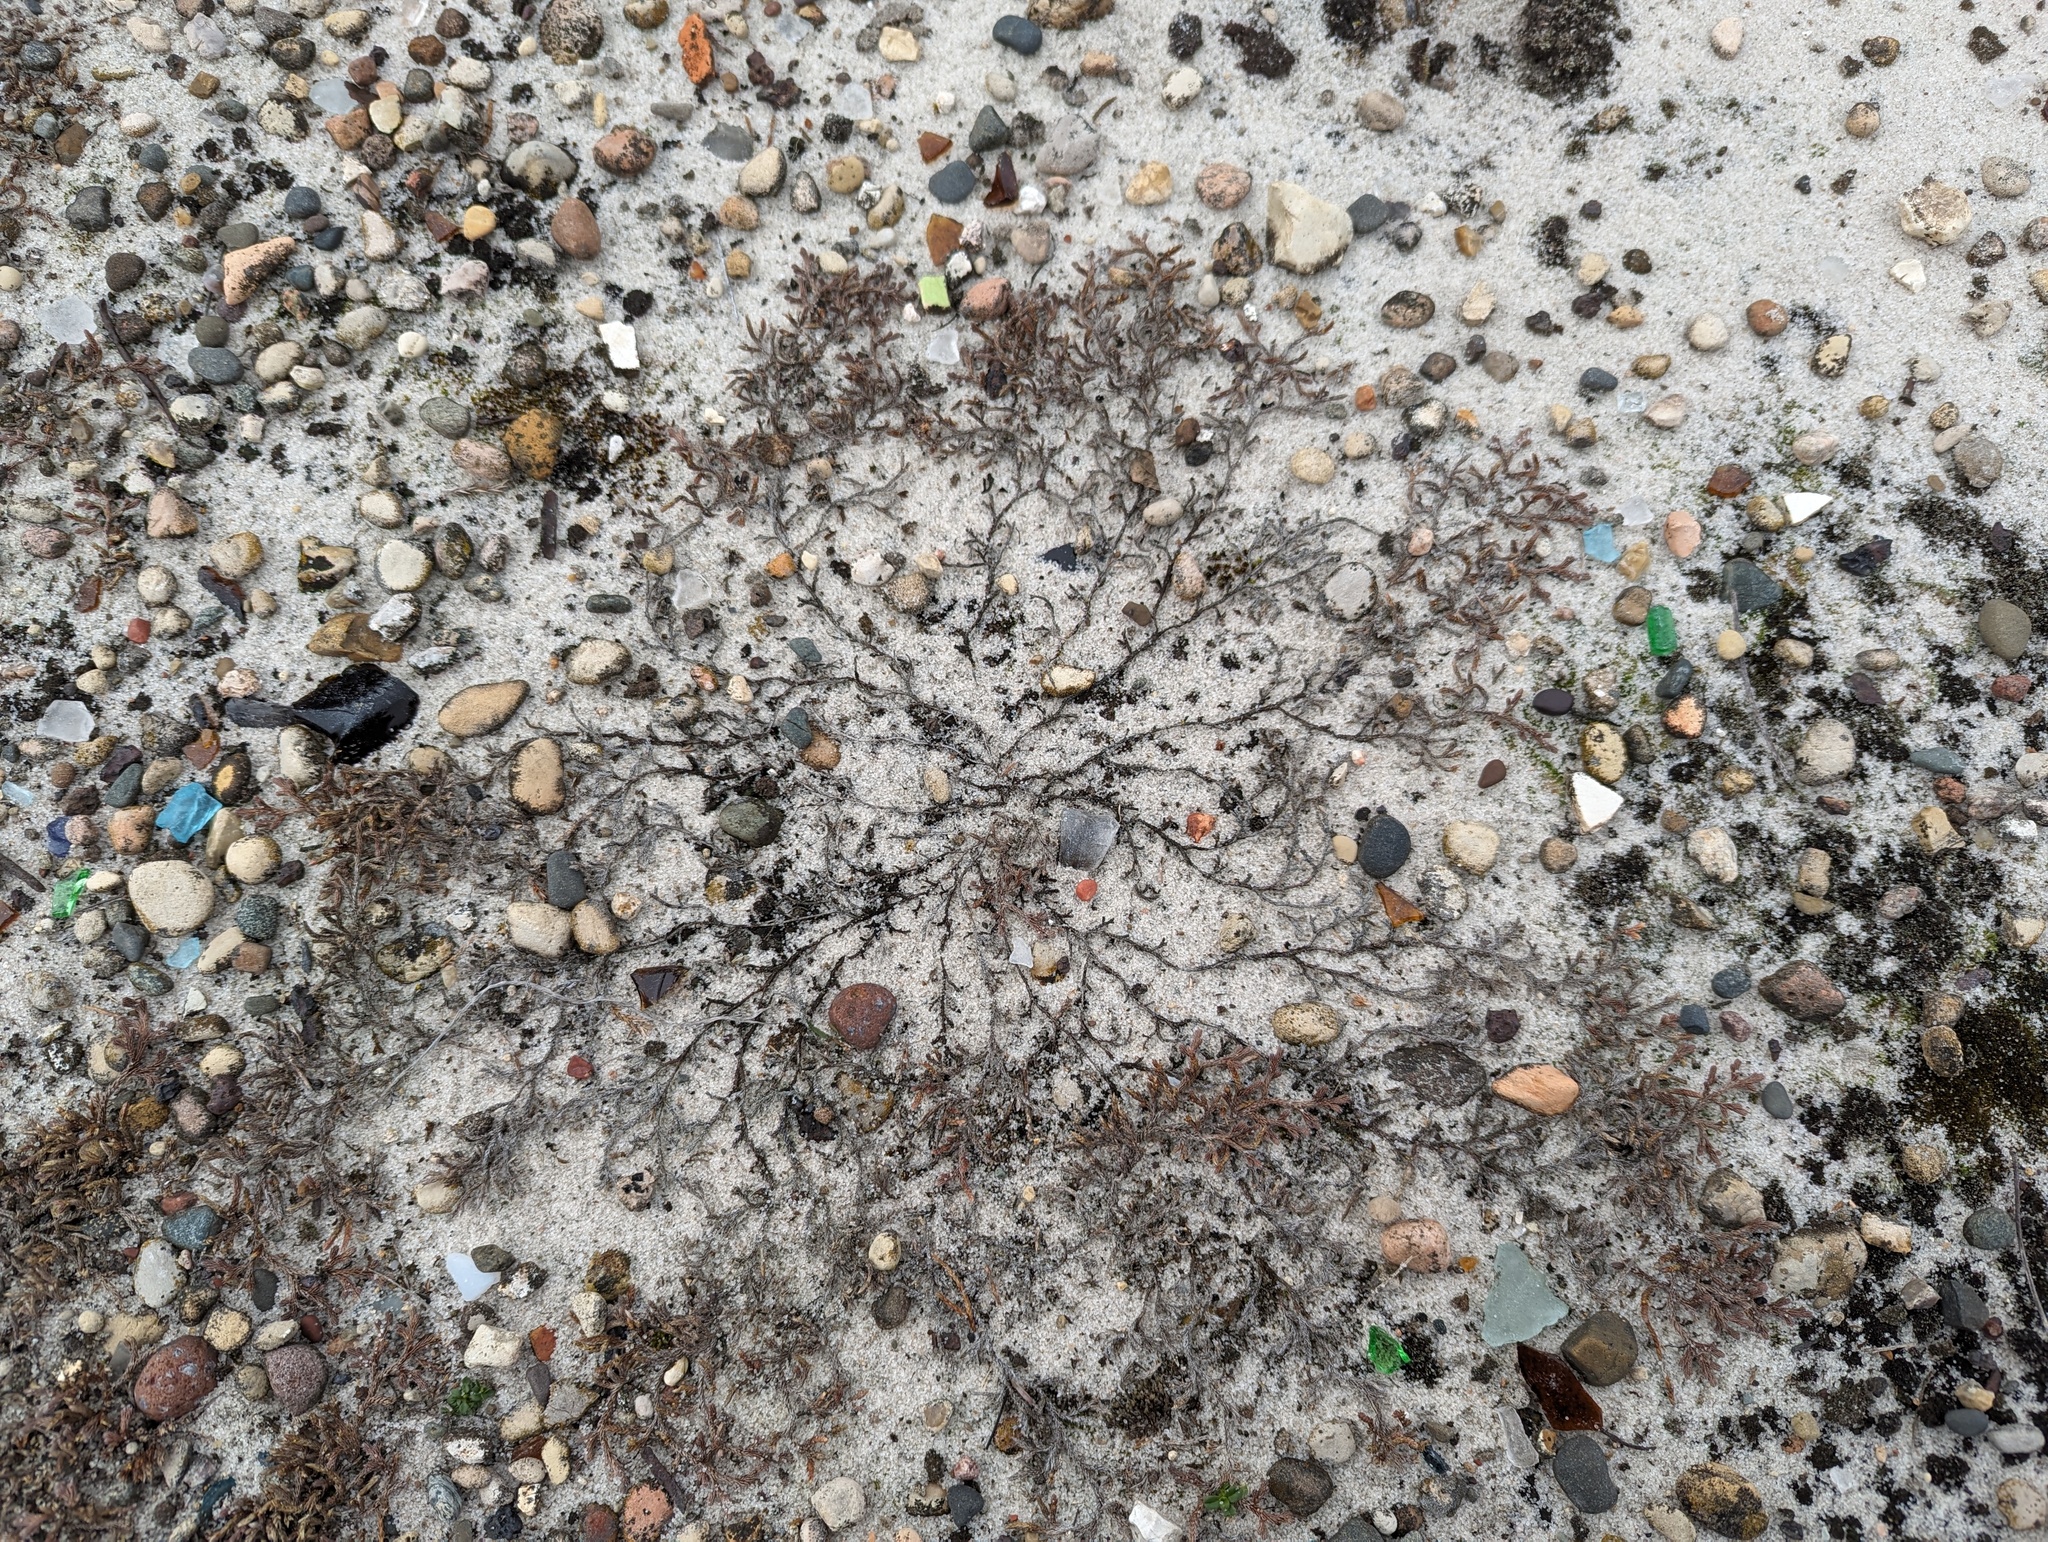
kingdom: Plantae
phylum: Tracheophyta
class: Lycopodiopsida
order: Selaginellales
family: Selaginellaceae
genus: Selaginella
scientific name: Selaginella rupestris
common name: Dwarf spikemoss
